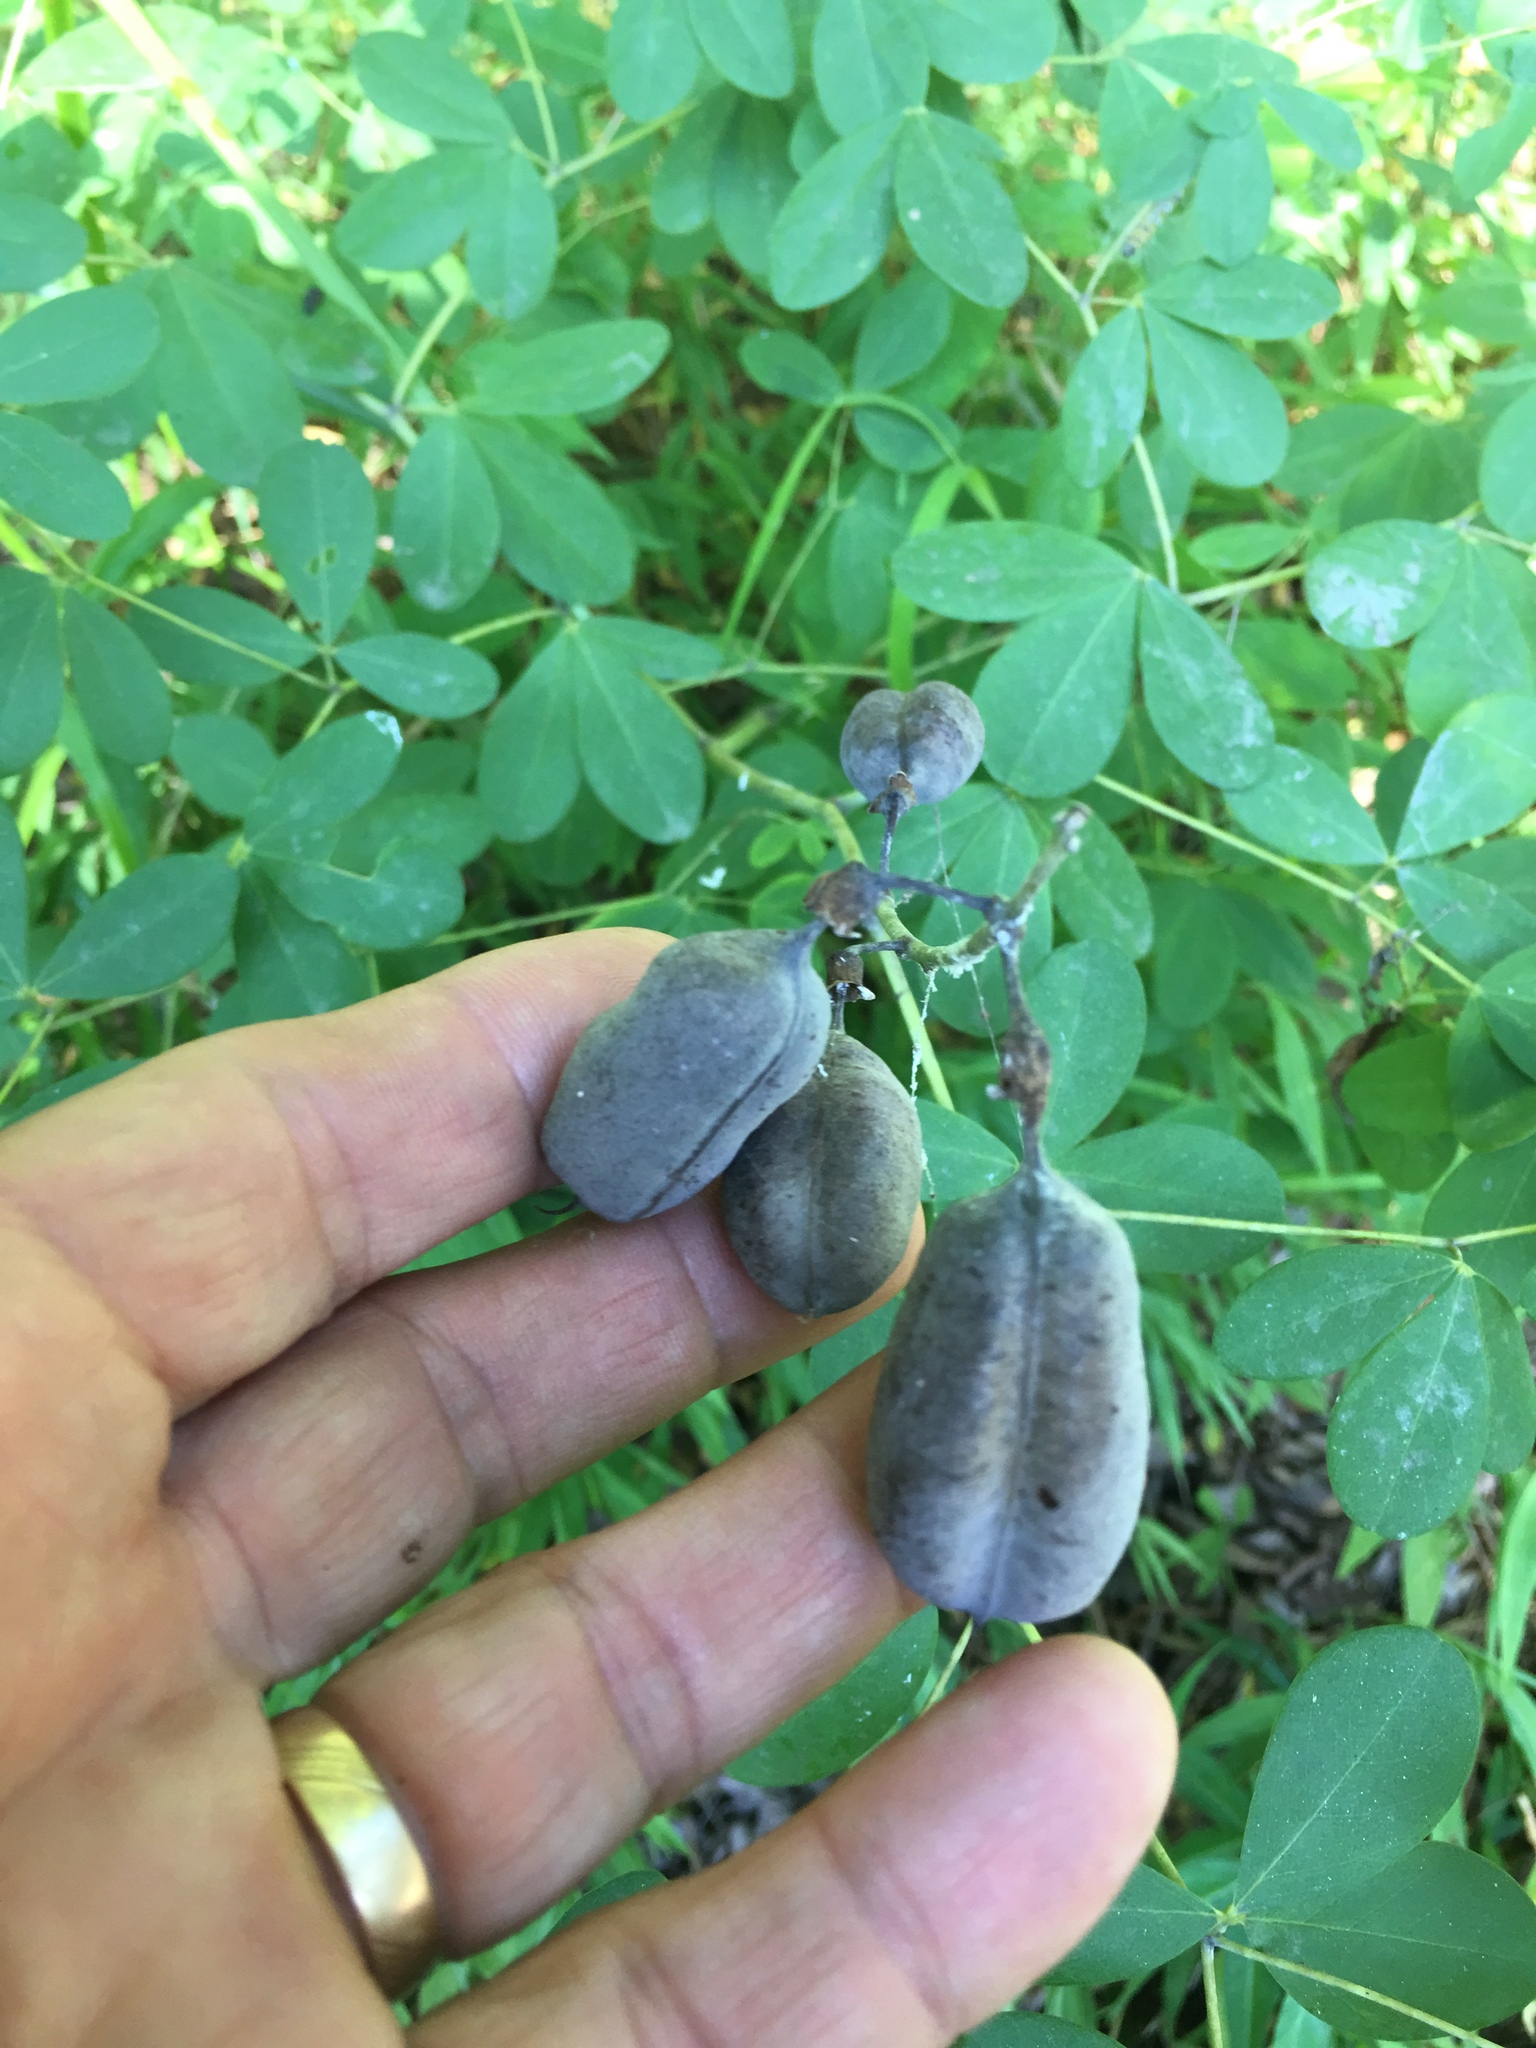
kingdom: Plantae
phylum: Tracheophyta
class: Magnoliopsida
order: Fabales
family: Fabaceae
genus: Baptisia
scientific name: Baptisia alba
